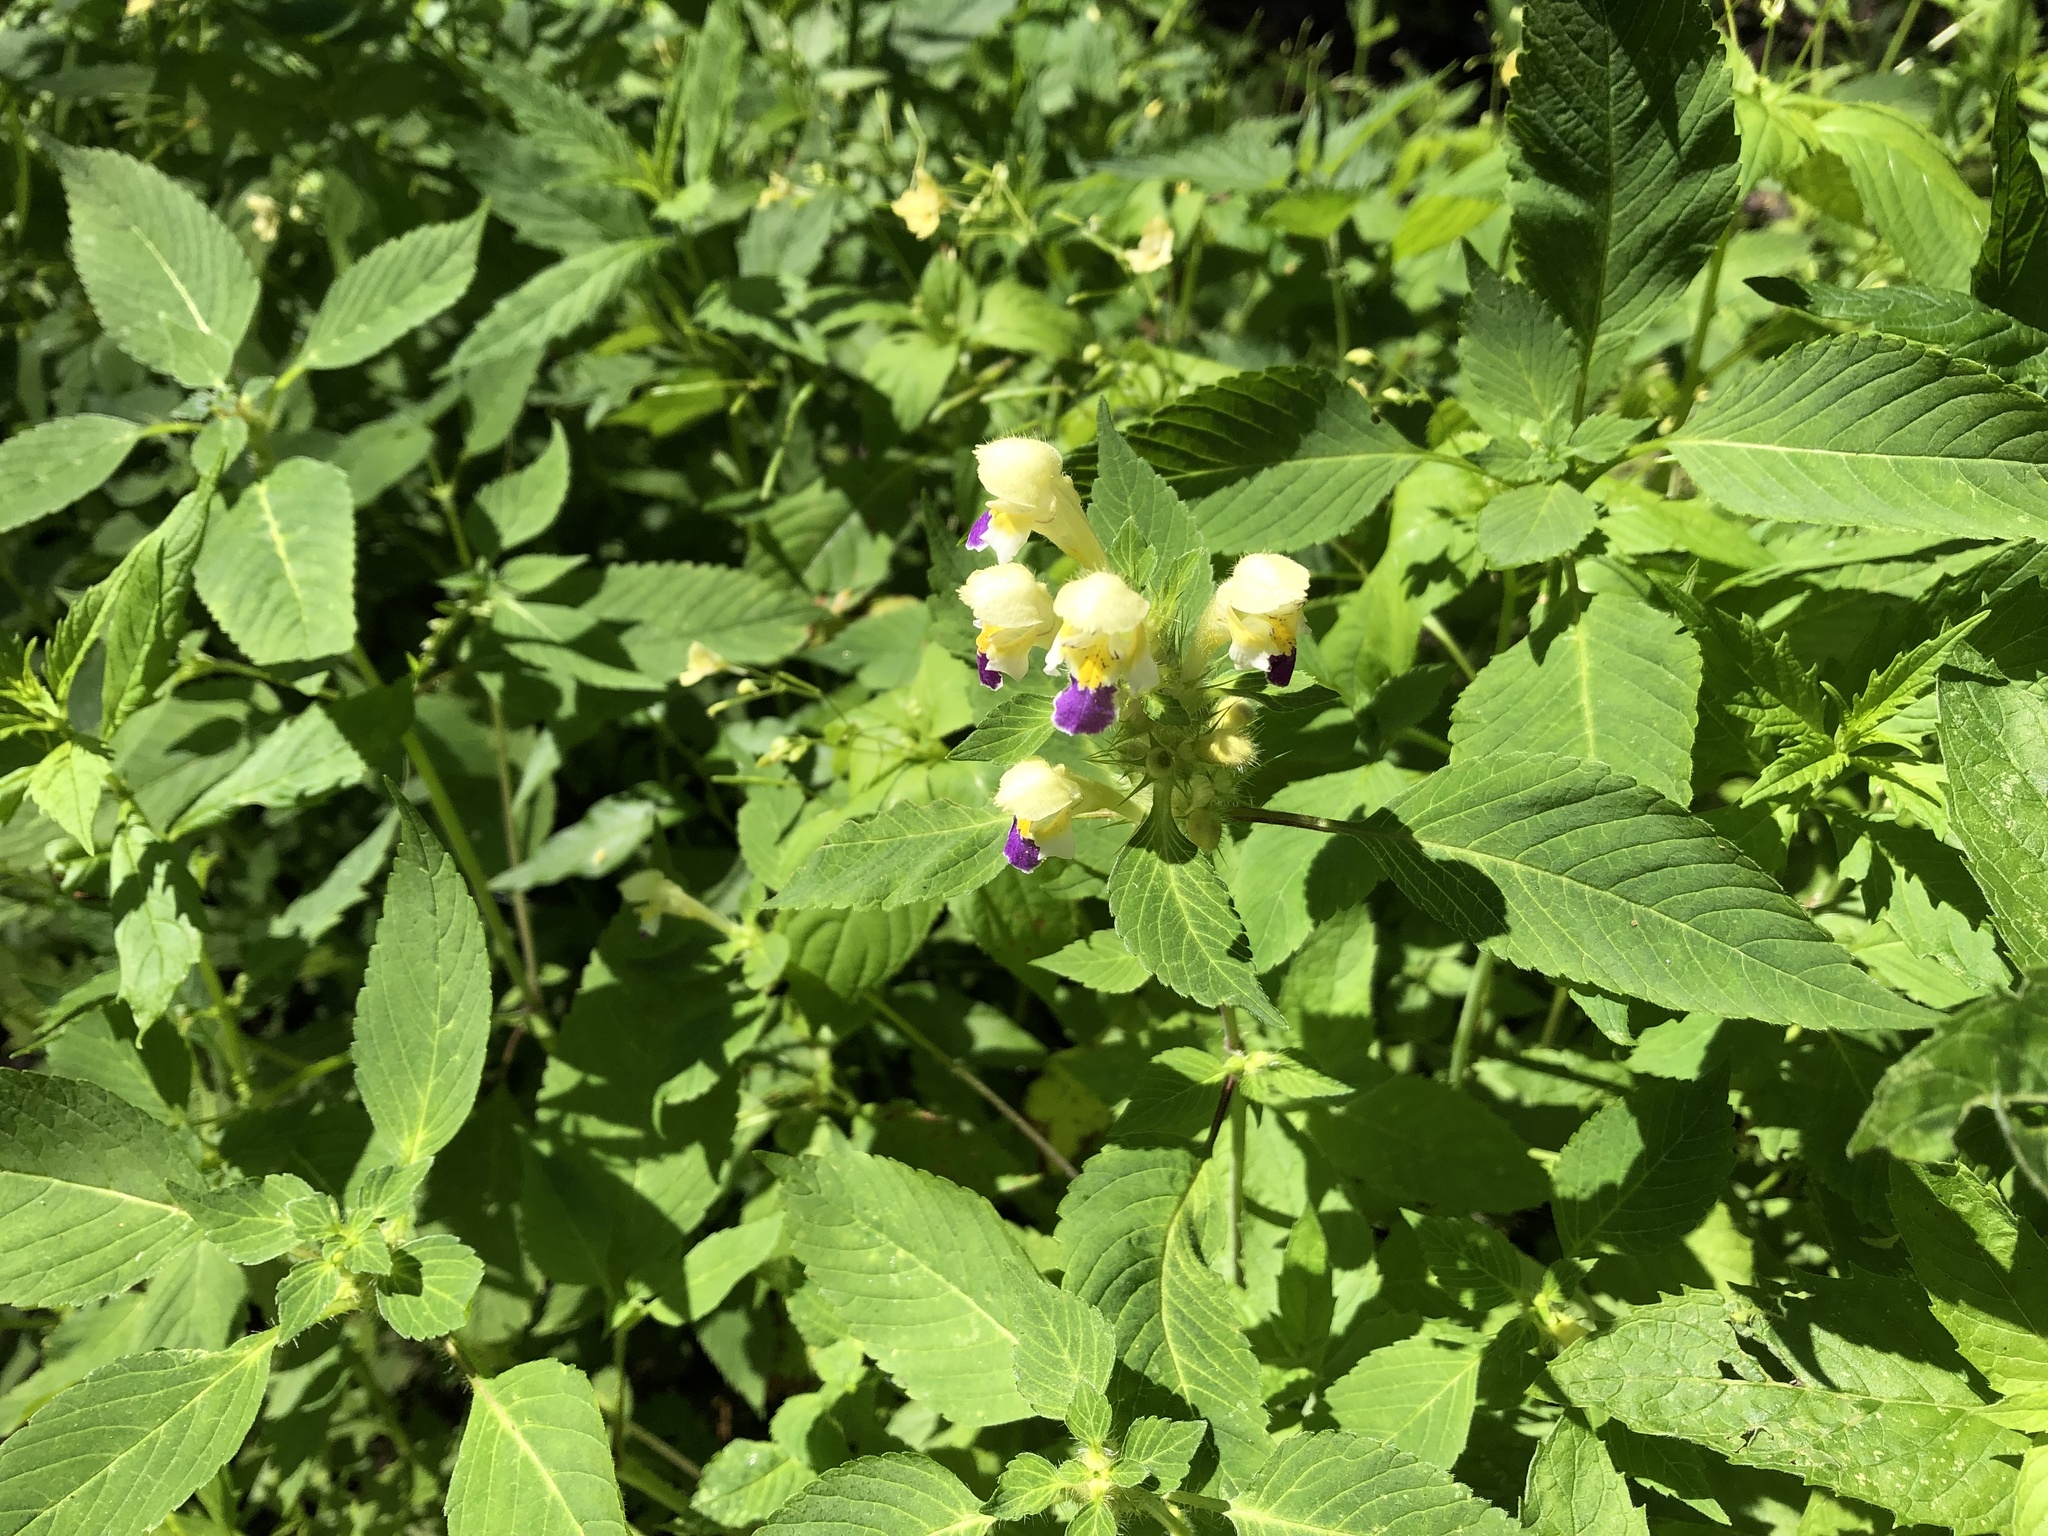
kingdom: Plantae
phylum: Tracheophyta
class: Magnoliopsida
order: Lamiales
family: Lamiaceae
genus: Galeopsis
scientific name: Galeopsis speciosa
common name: Large-flowered hemp-nettle
